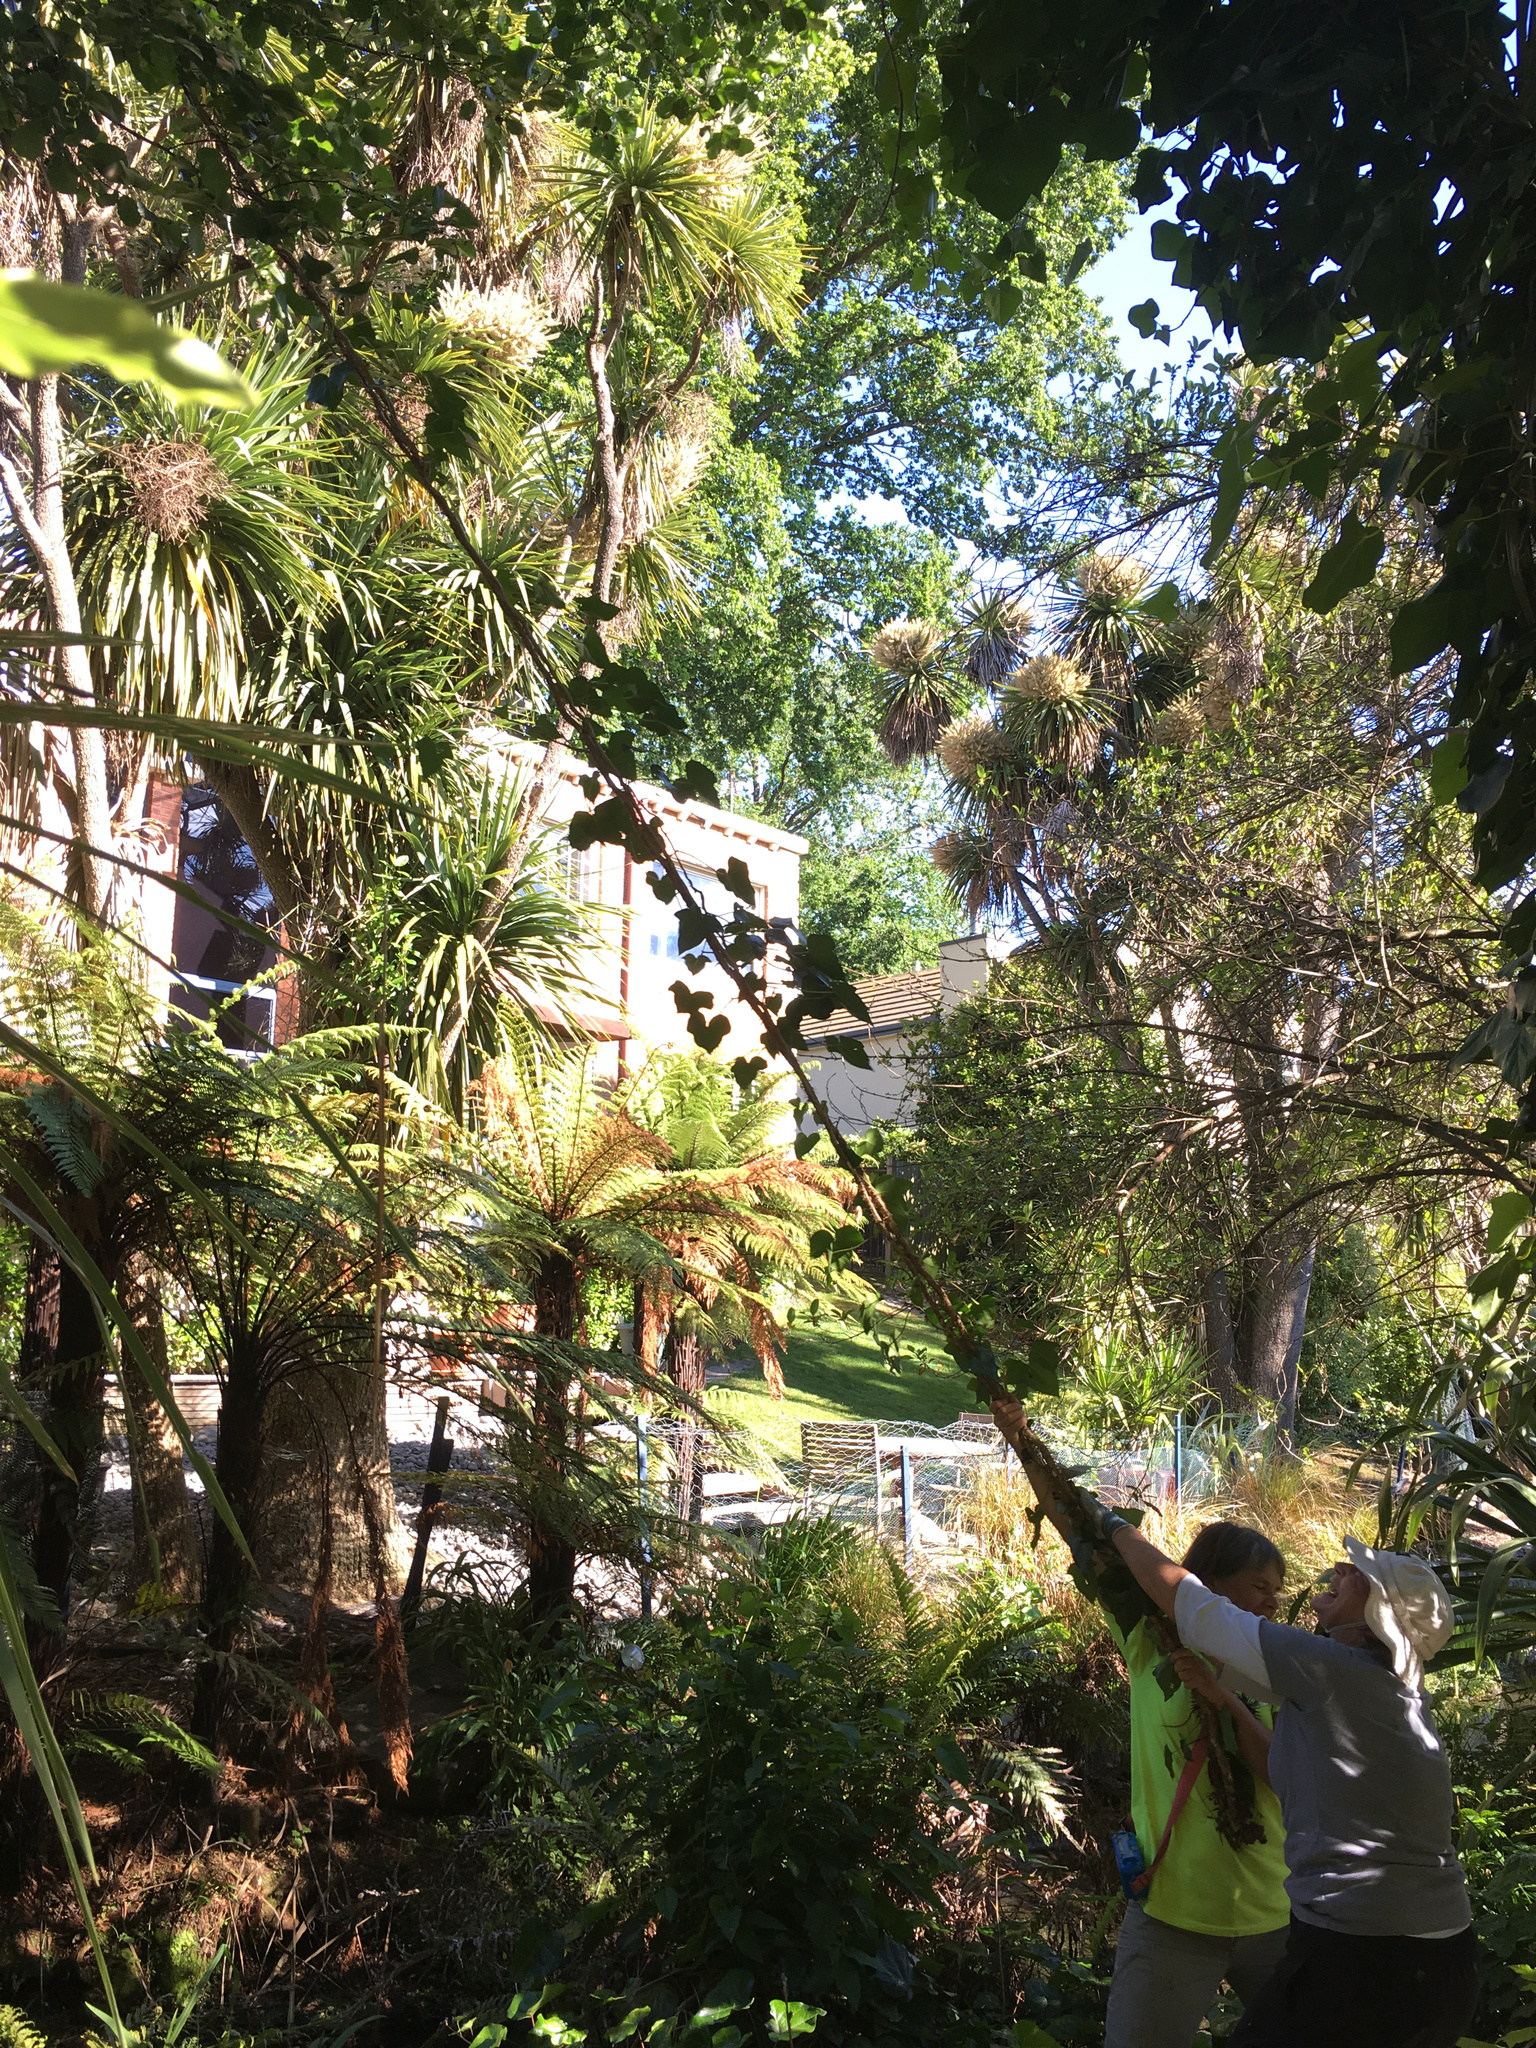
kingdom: Plantae
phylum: Tracheophyta
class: Magnoliopsida
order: Apiales
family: Araliaceae
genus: Hedera
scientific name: Hedera canariensis
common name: Madeira ivy
